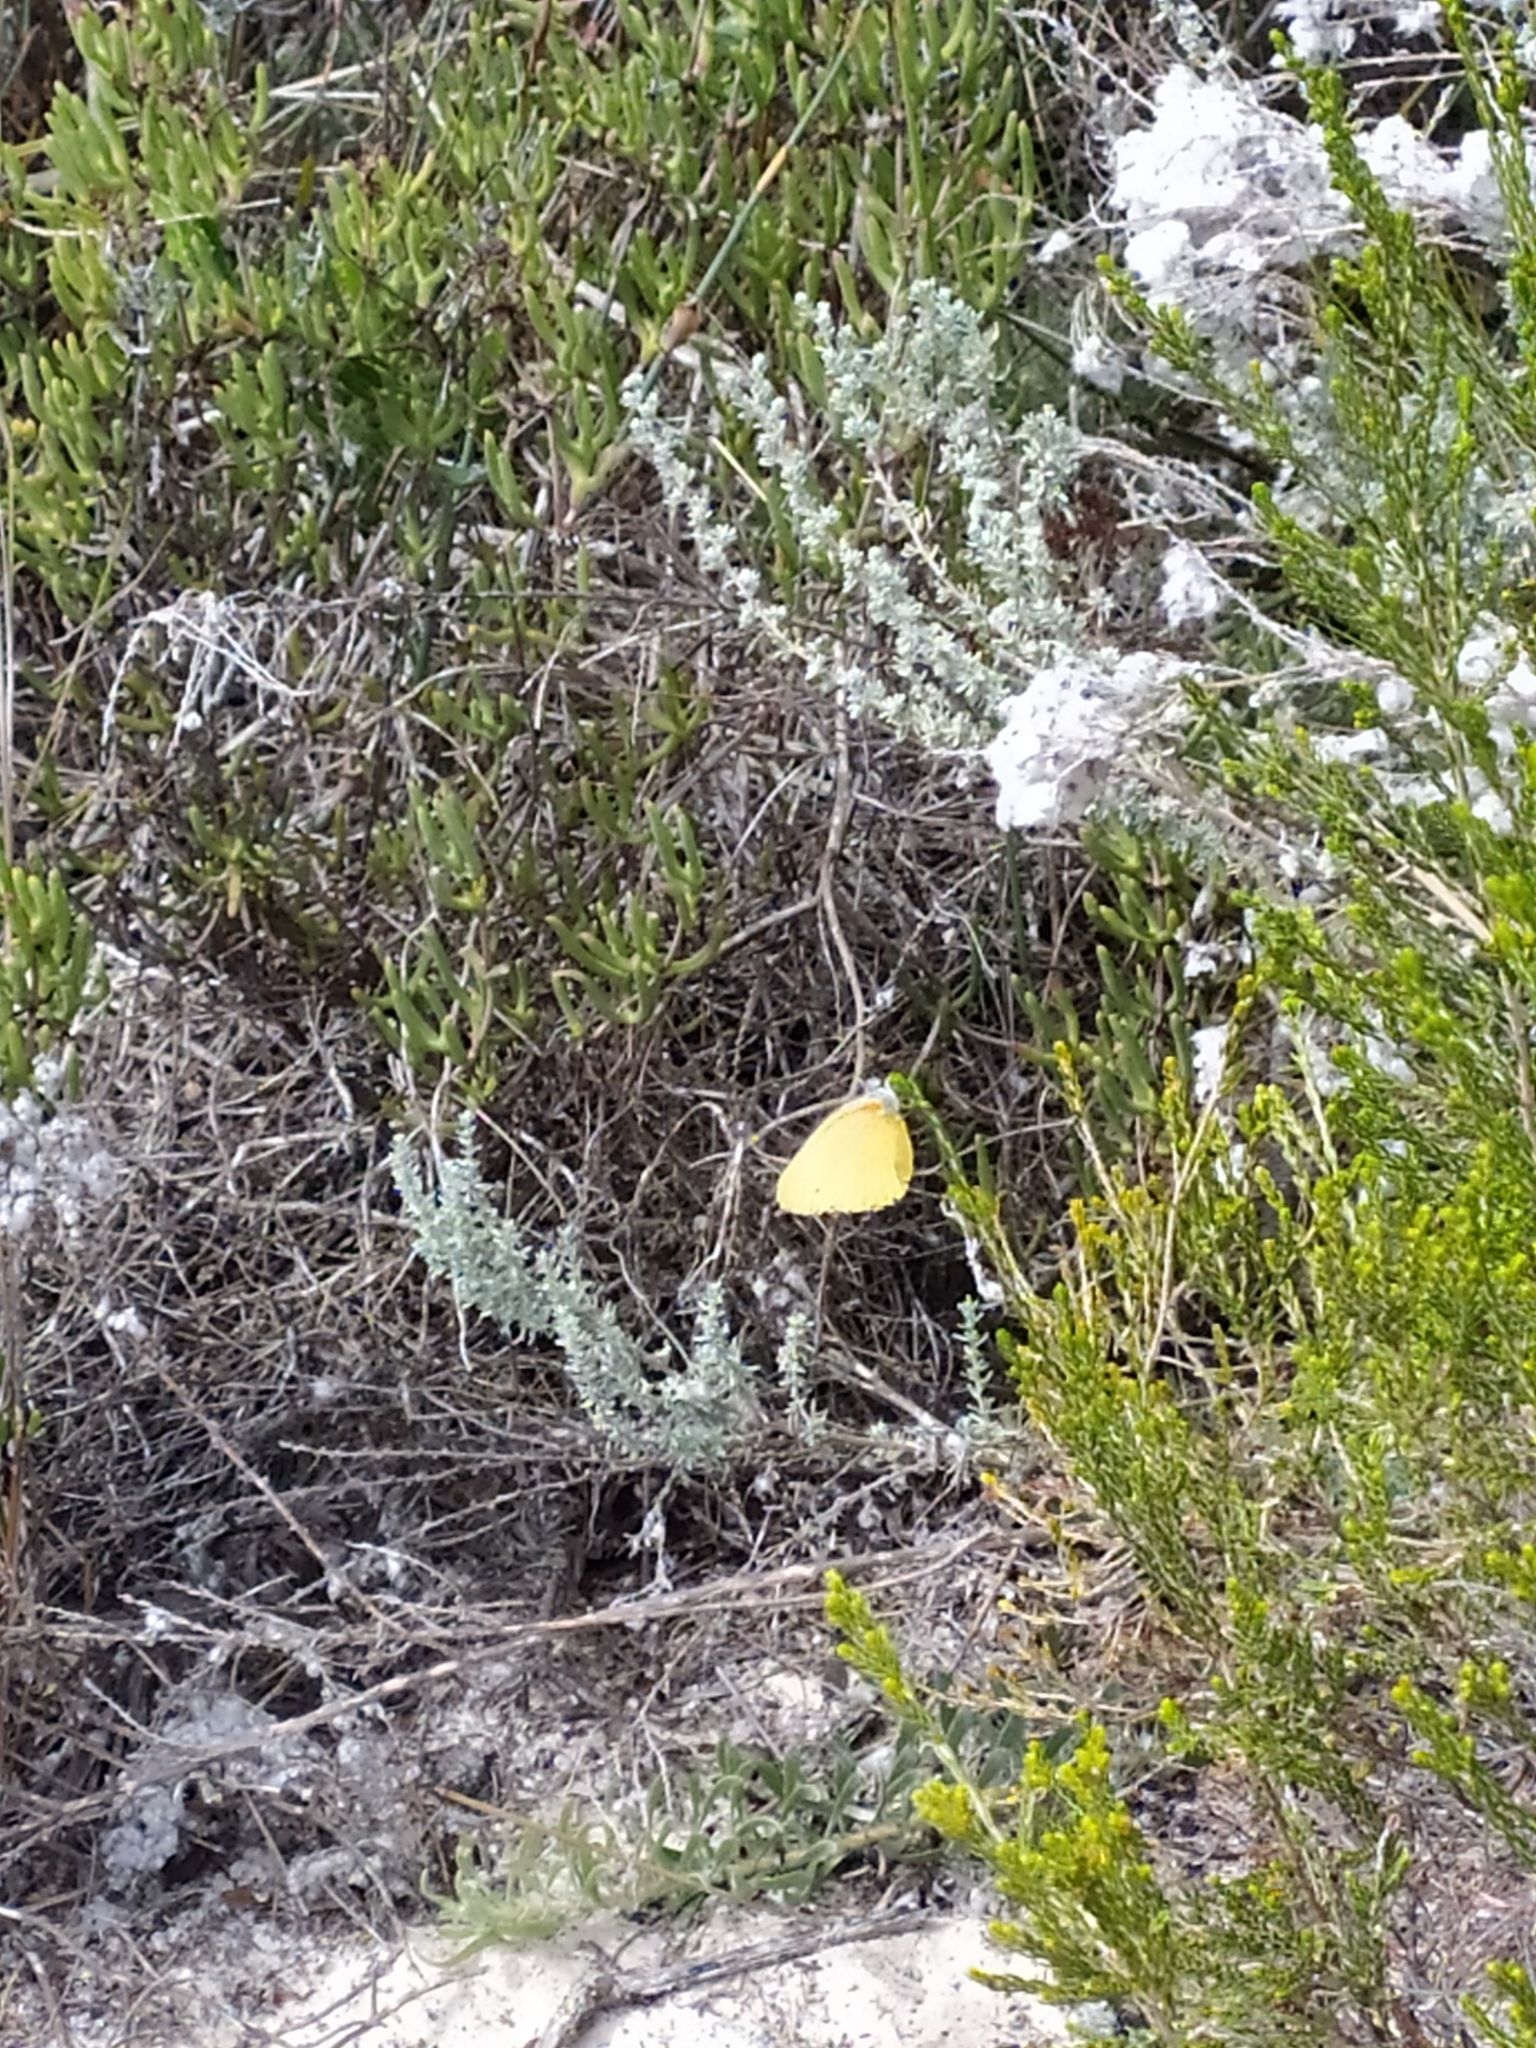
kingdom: Animalia
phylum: Arthropoda
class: Insecta
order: Lepidoptera
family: Pieridae
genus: Mylothris
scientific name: Mylothris agathina
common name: Eastern dotted border
